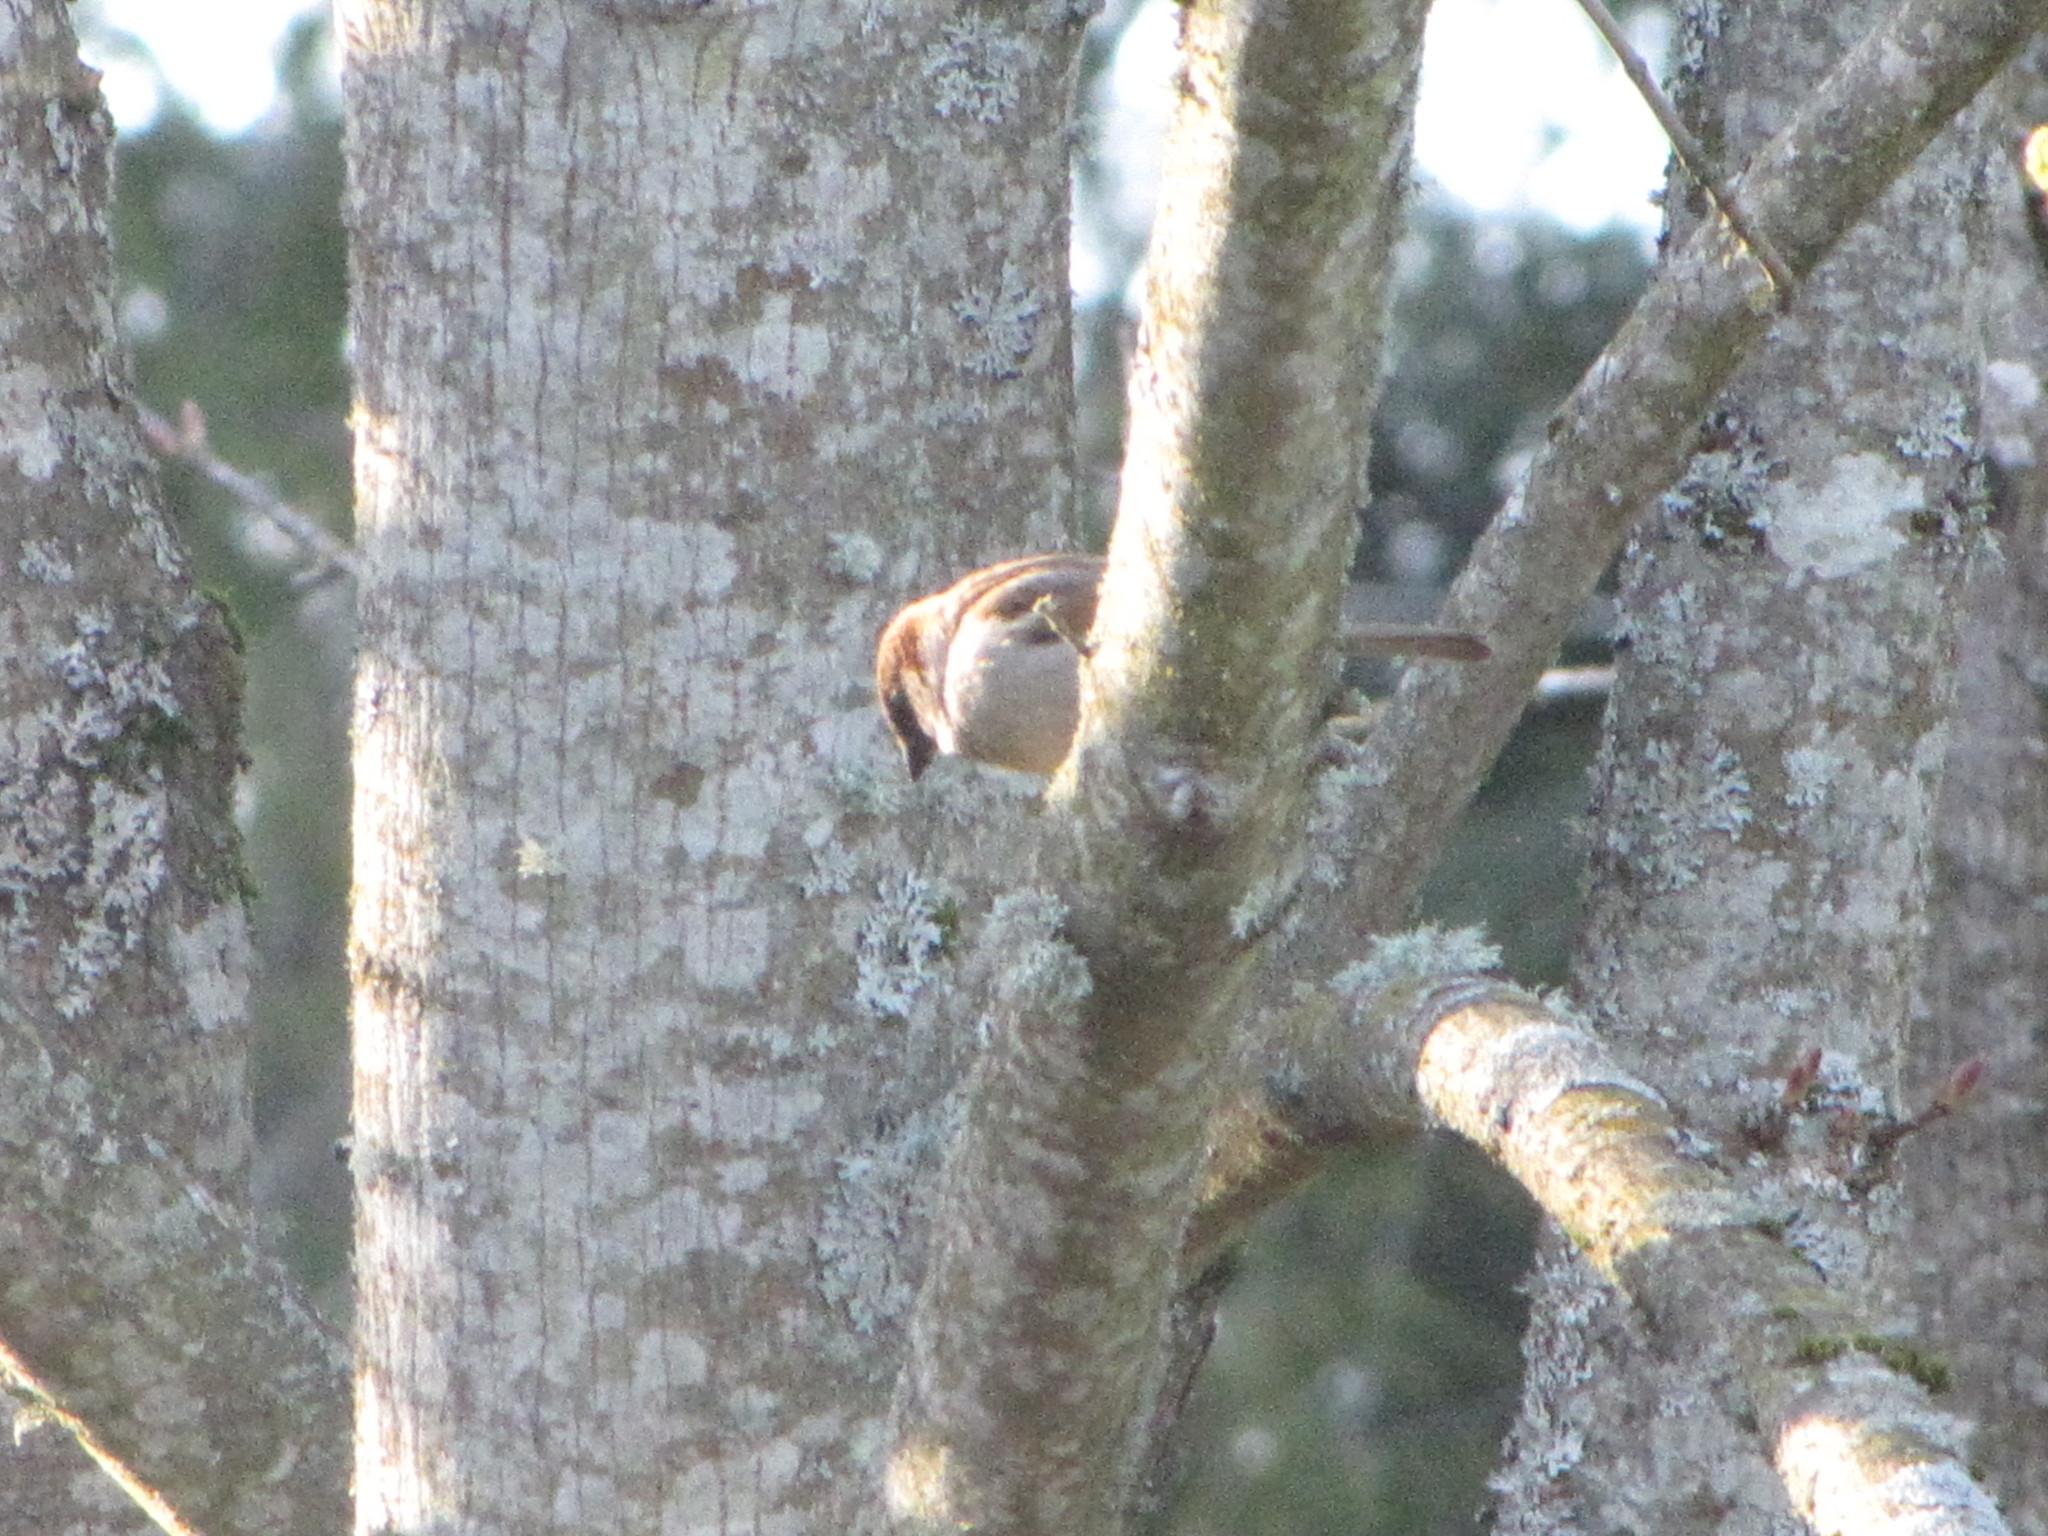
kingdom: Animalia
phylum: Chordata
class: Aves
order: Passeriformes
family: Passeridae
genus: Passer
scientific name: Passer domesticus
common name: House sparrow
